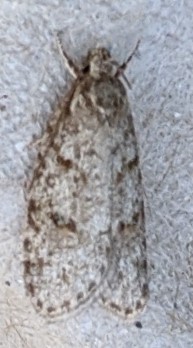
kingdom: Animalia
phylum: Arthropoda
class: Insecta
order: Lepidoptera
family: Depressariidae
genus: Bibarrambla
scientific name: Bibarrambla allenella
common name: Bog bibarrambla moth
